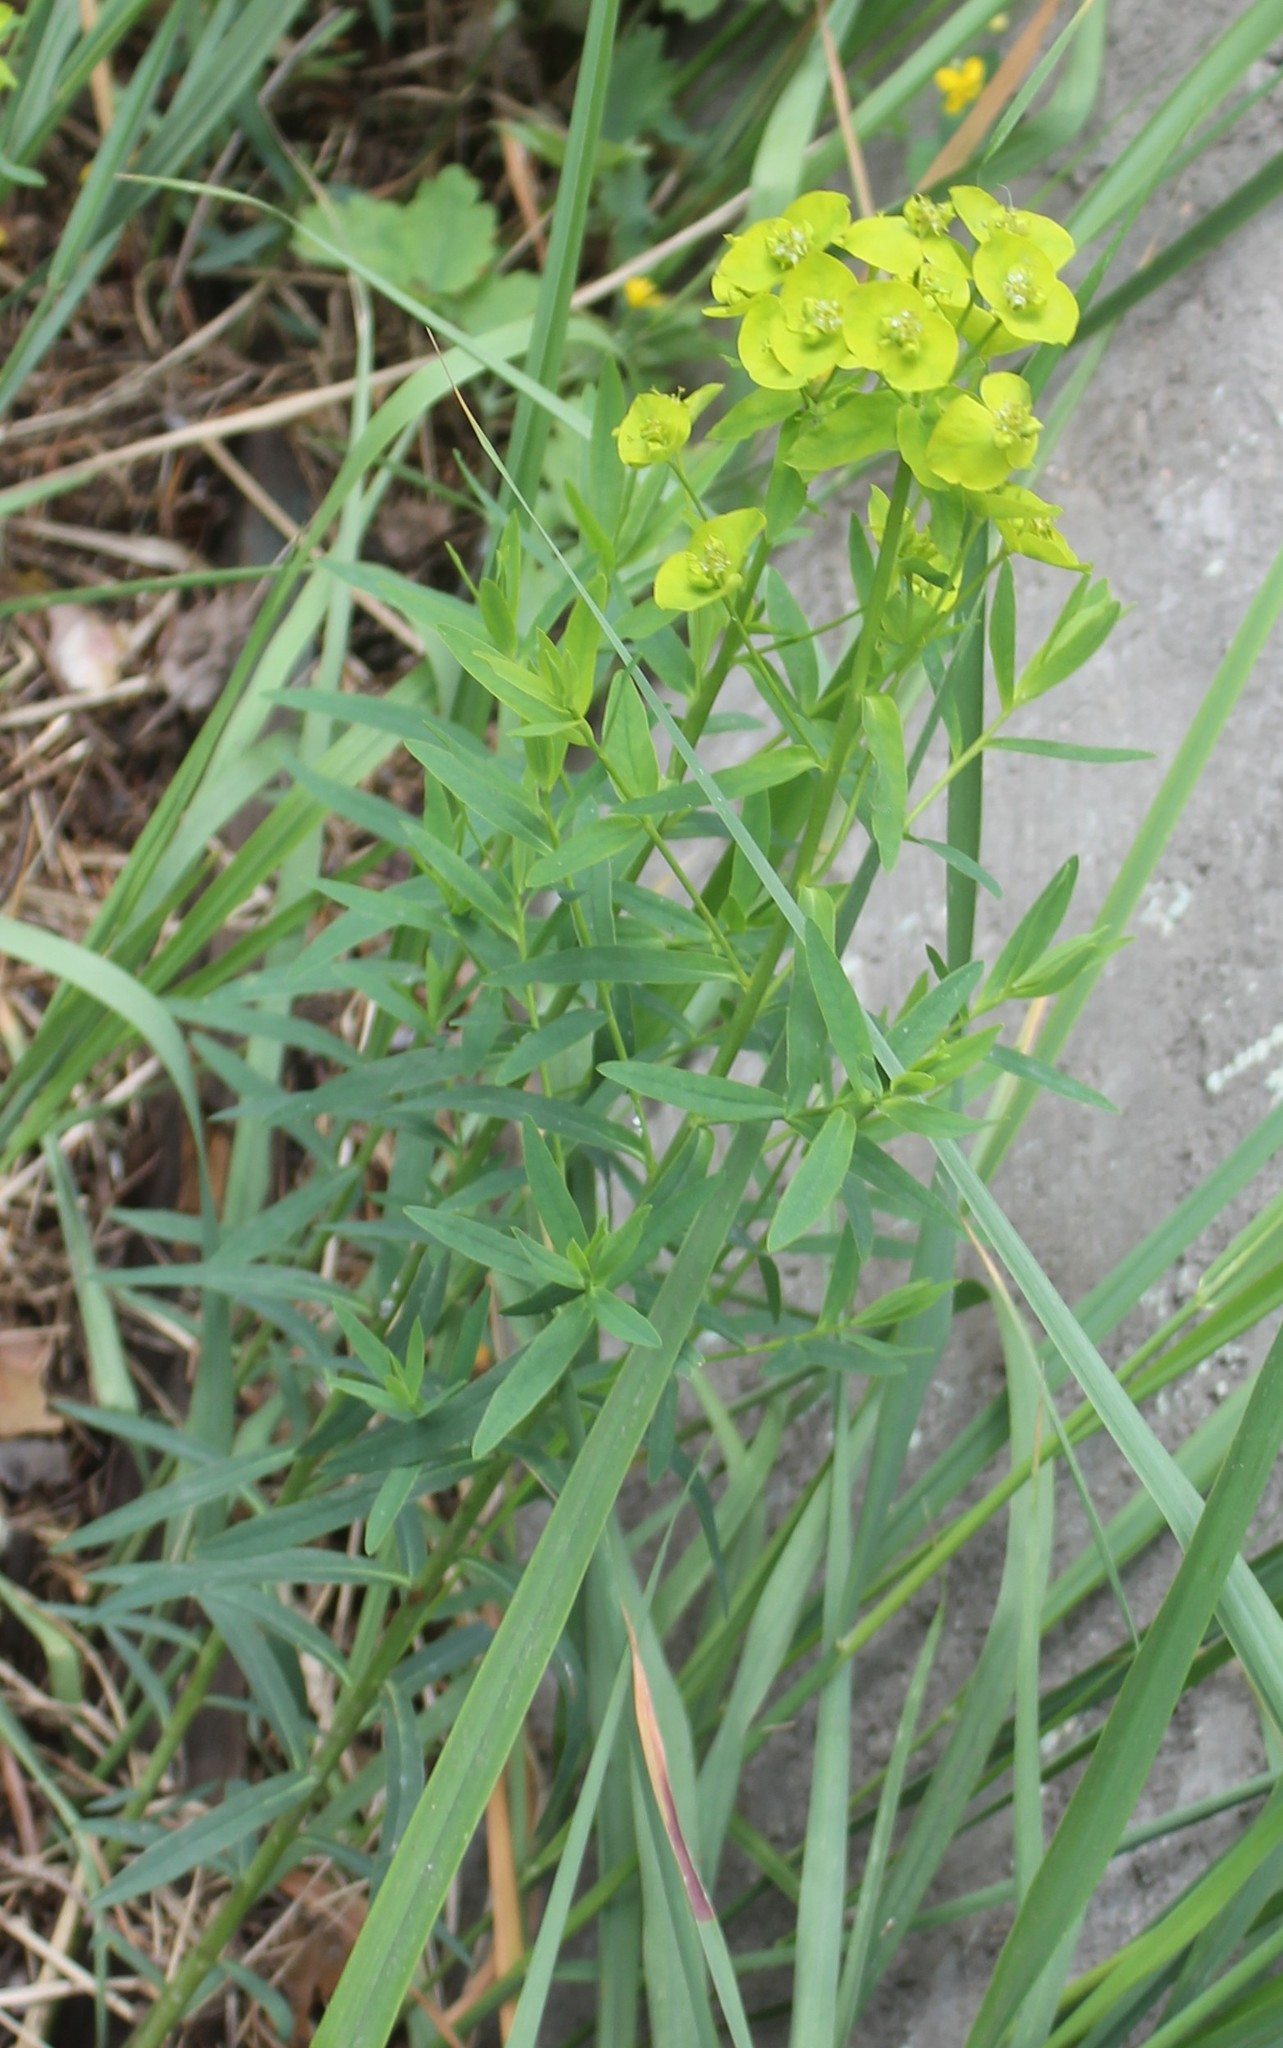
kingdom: Plantae
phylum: Tracheophyta
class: Magnoliopsida
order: Malpighiales
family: Euphorbiaceae
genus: Euphorbia
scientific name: Euphorbia virgata
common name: Leafy spurge
